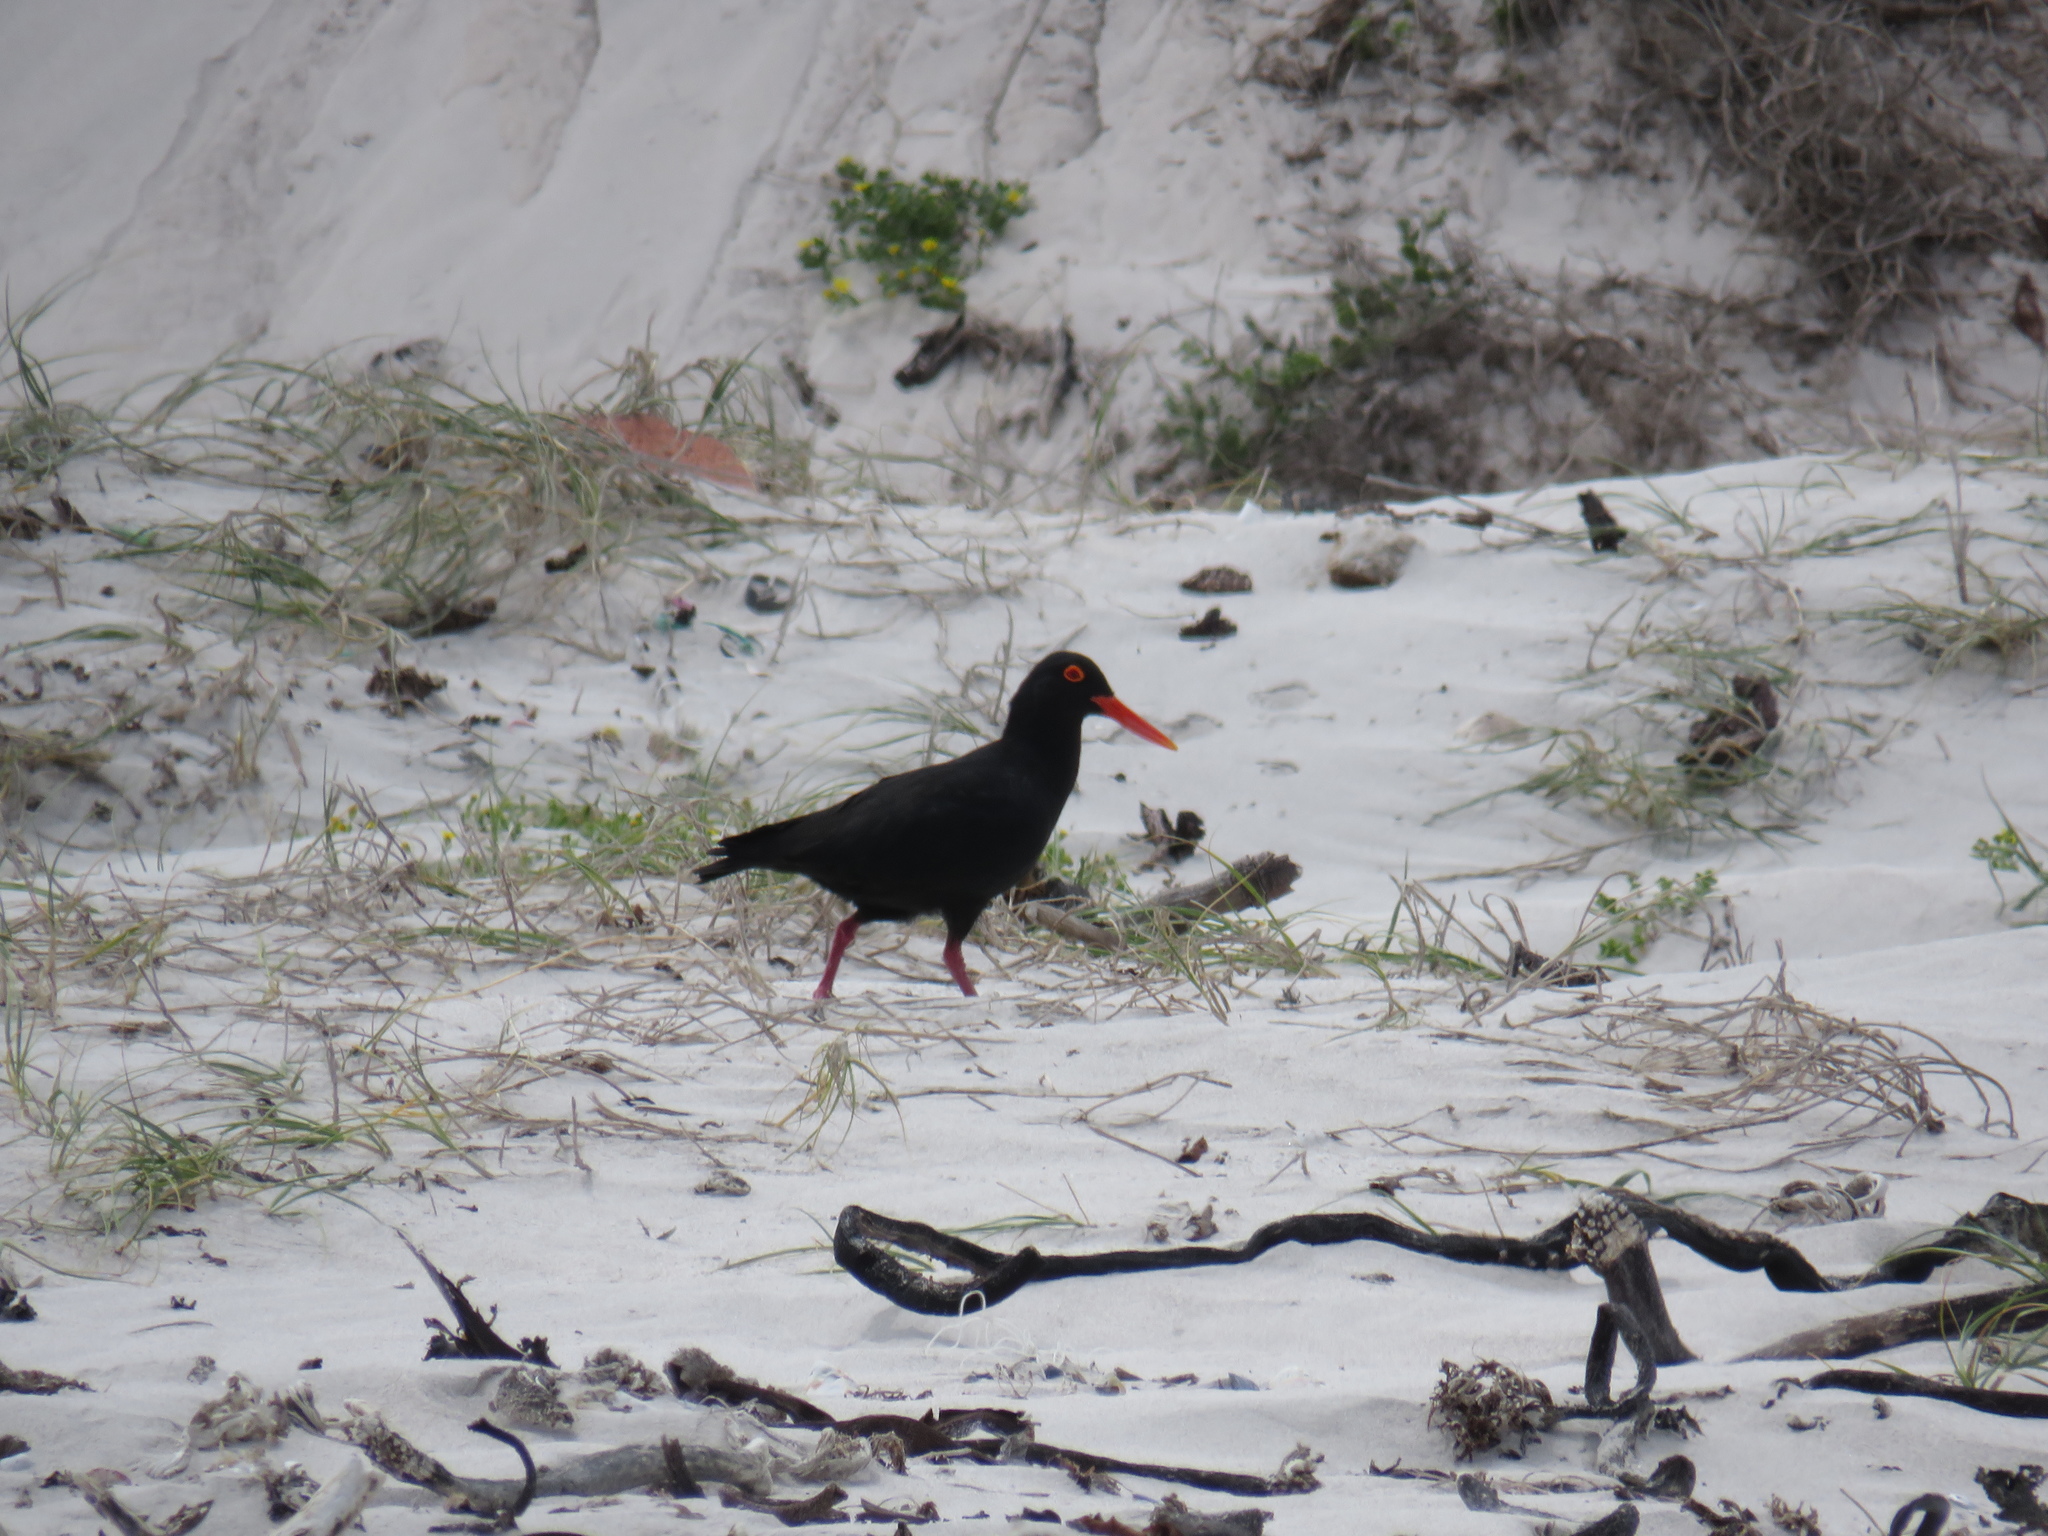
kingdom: Animalia
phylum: Chordata
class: Aves
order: Charadriiformes
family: Haematopodidae
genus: Haematopus
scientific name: Haematopus moquini
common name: African oystercatcher
